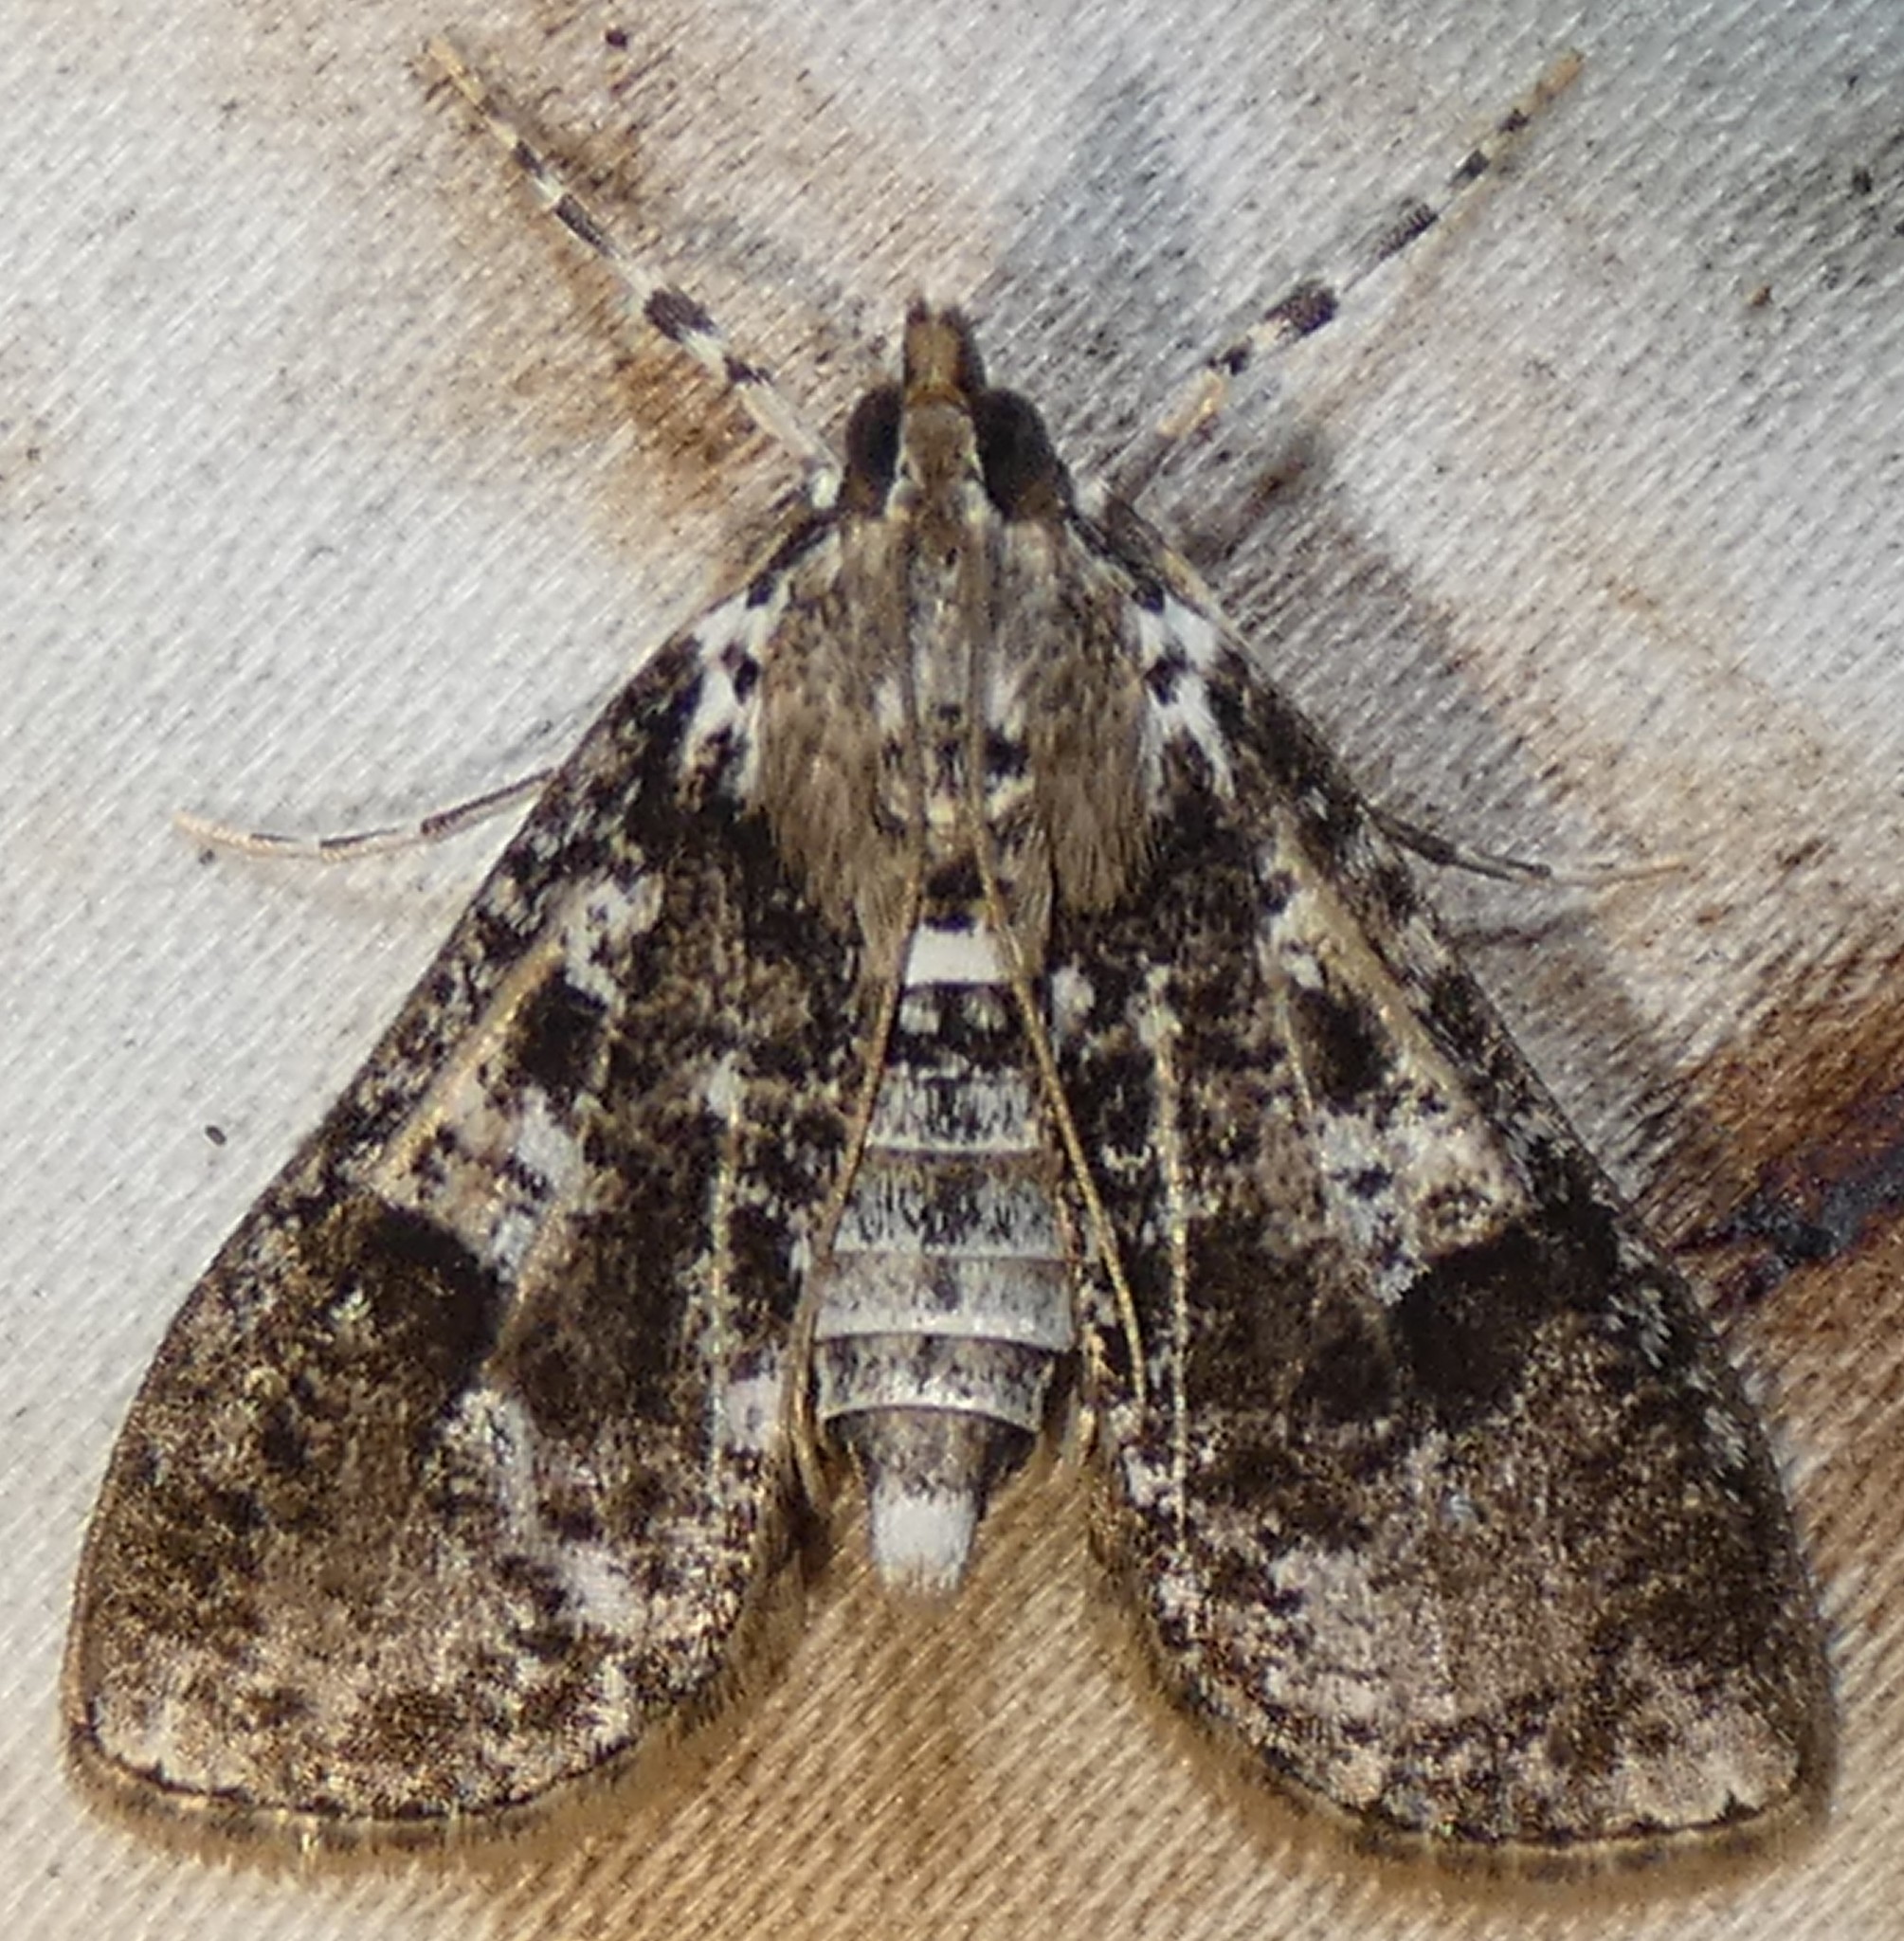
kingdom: Animalia
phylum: Arthropoda
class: Insecta
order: Lepidoptera
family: Crambidae
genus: Palpita
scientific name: Palpita magniferalis
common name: Splendid palpita moth
